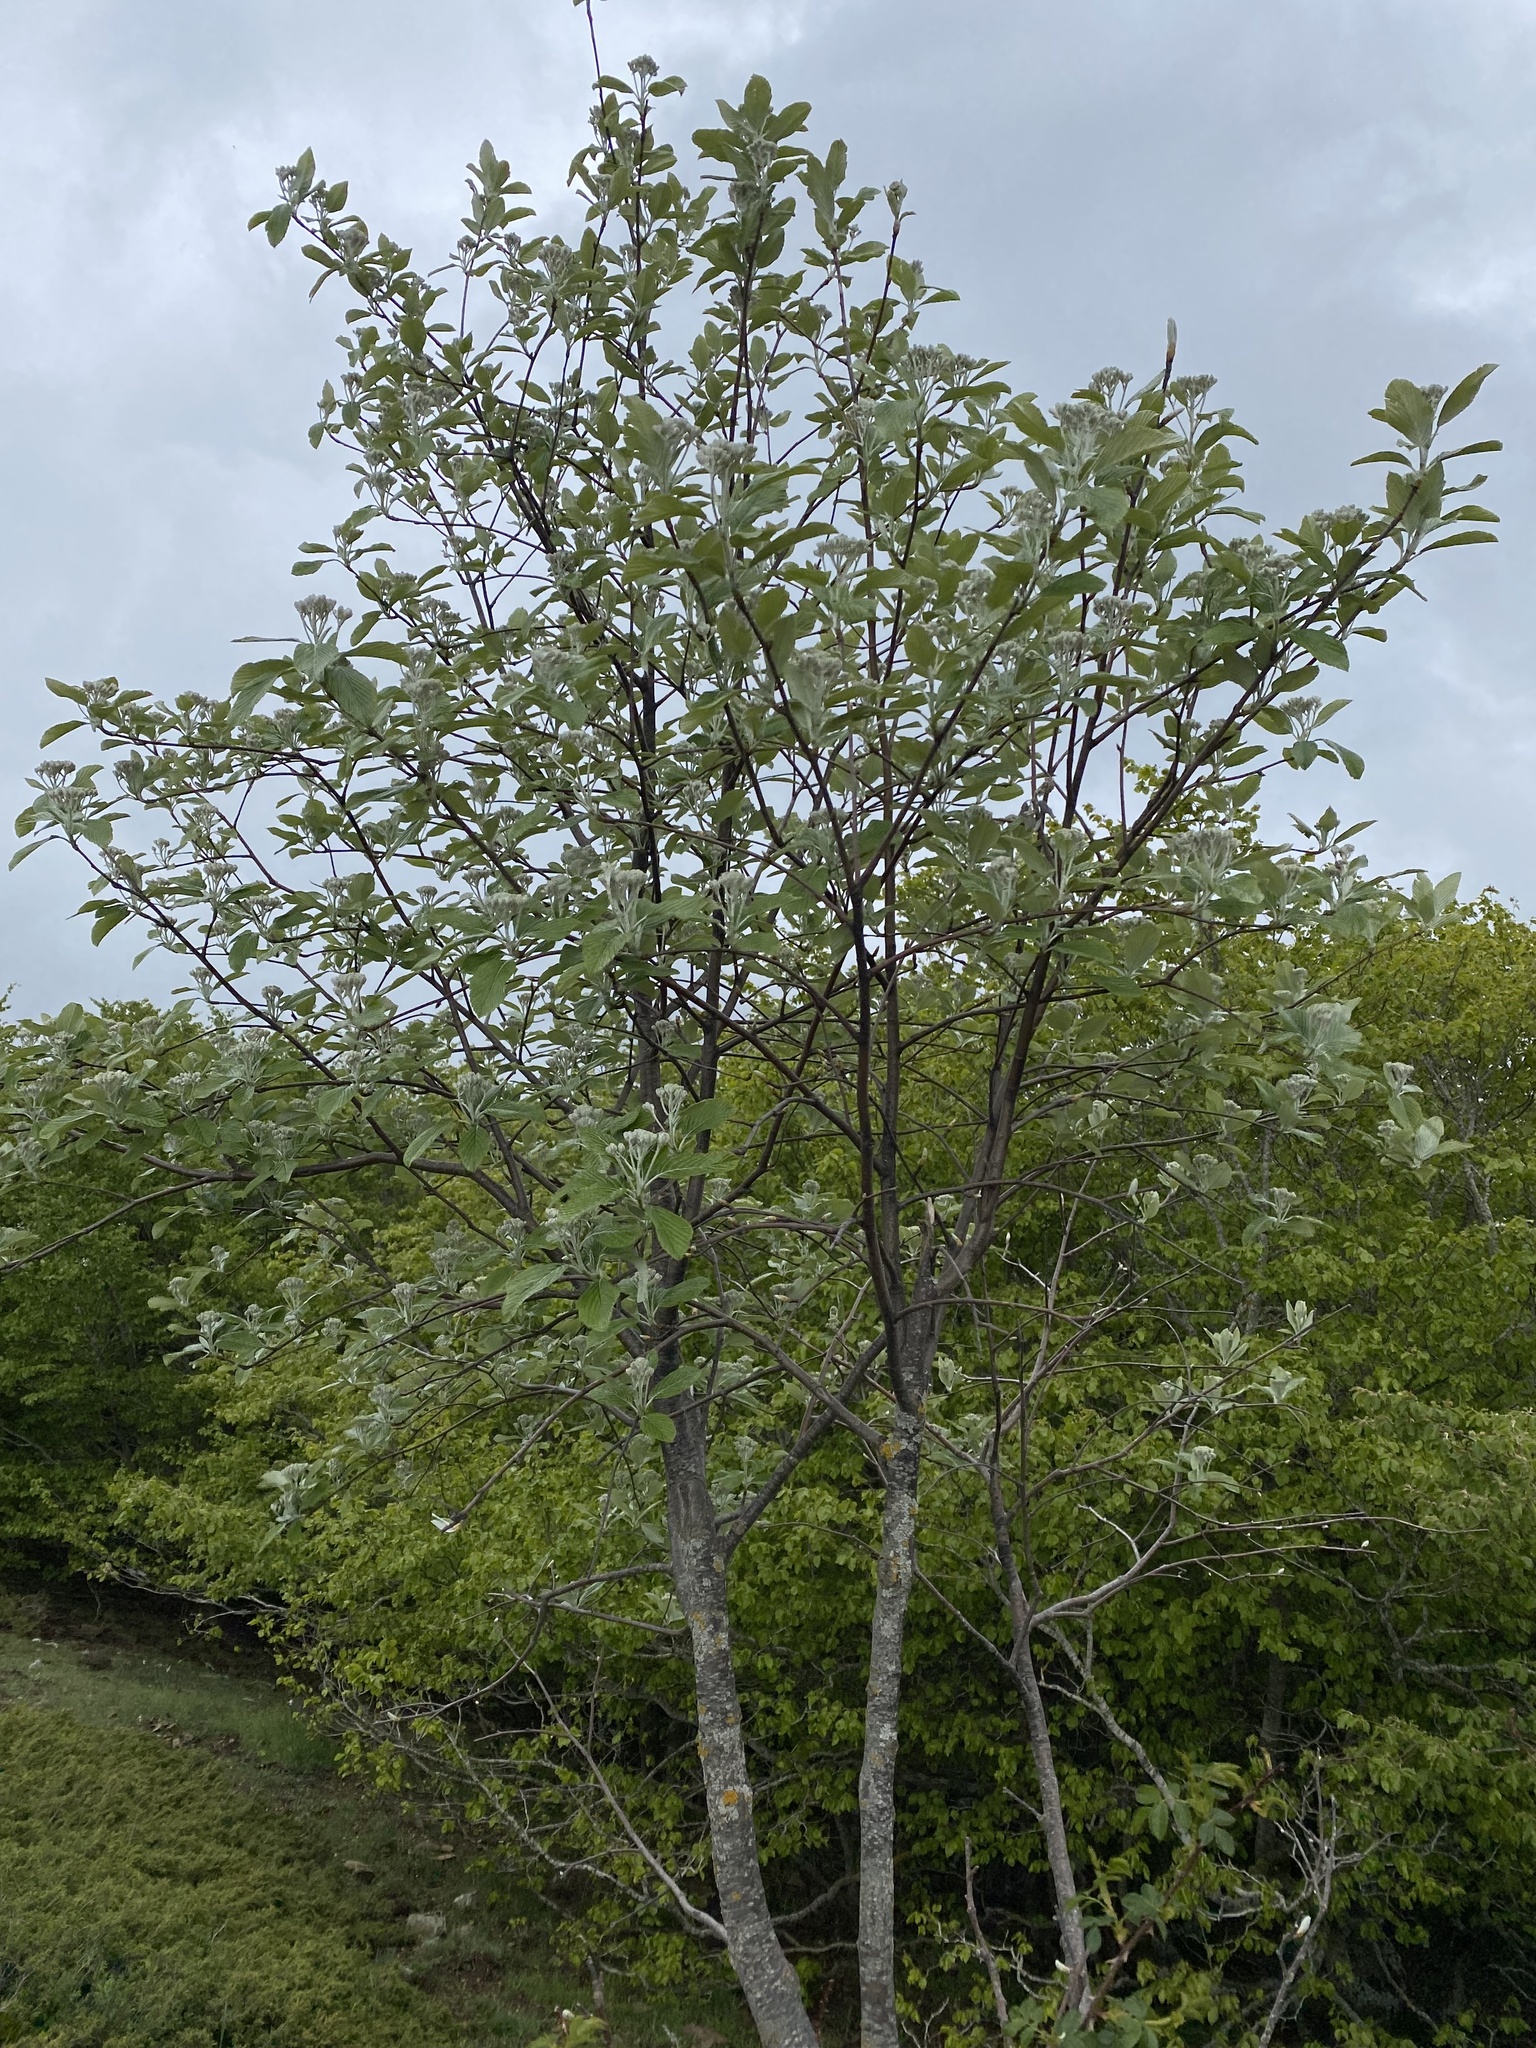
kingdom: Plantae
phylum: Tracheophyta
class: Magnoliopsida
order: Rosales
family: Rosaceae
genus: Aria
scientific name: Aria edulis
